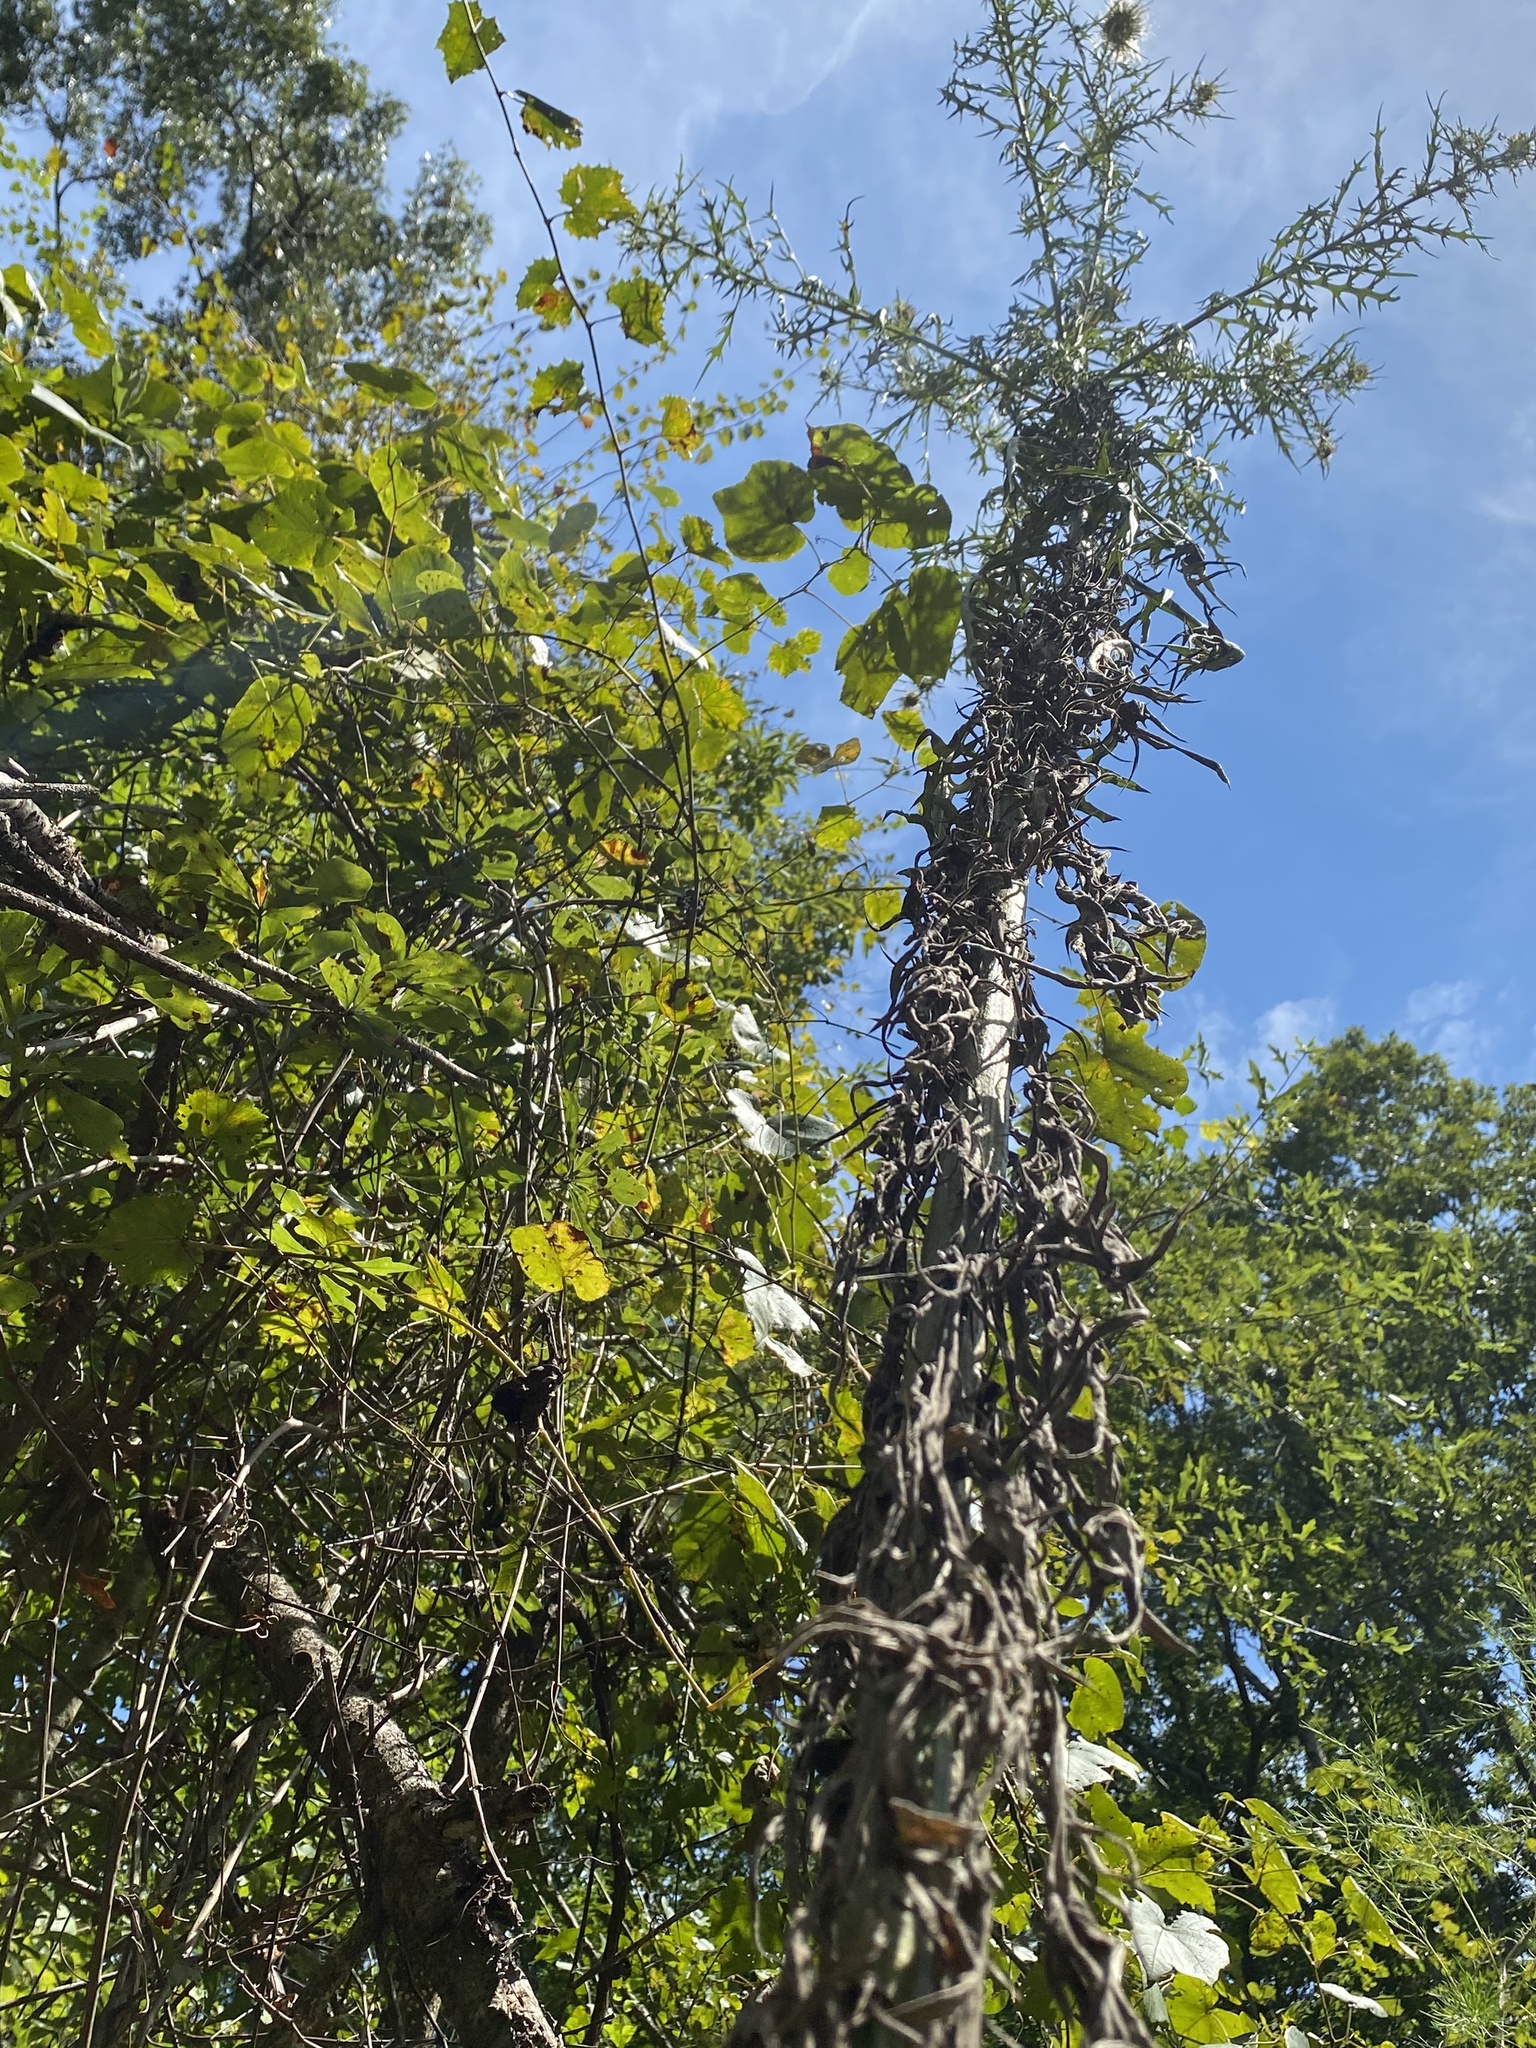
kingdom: Plantae
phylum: Tracheophyta
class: Magnoliopsida
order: Asterales
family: Asteraceae
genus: Cirsium
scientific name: Cirsium discolor
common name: Field thistle
